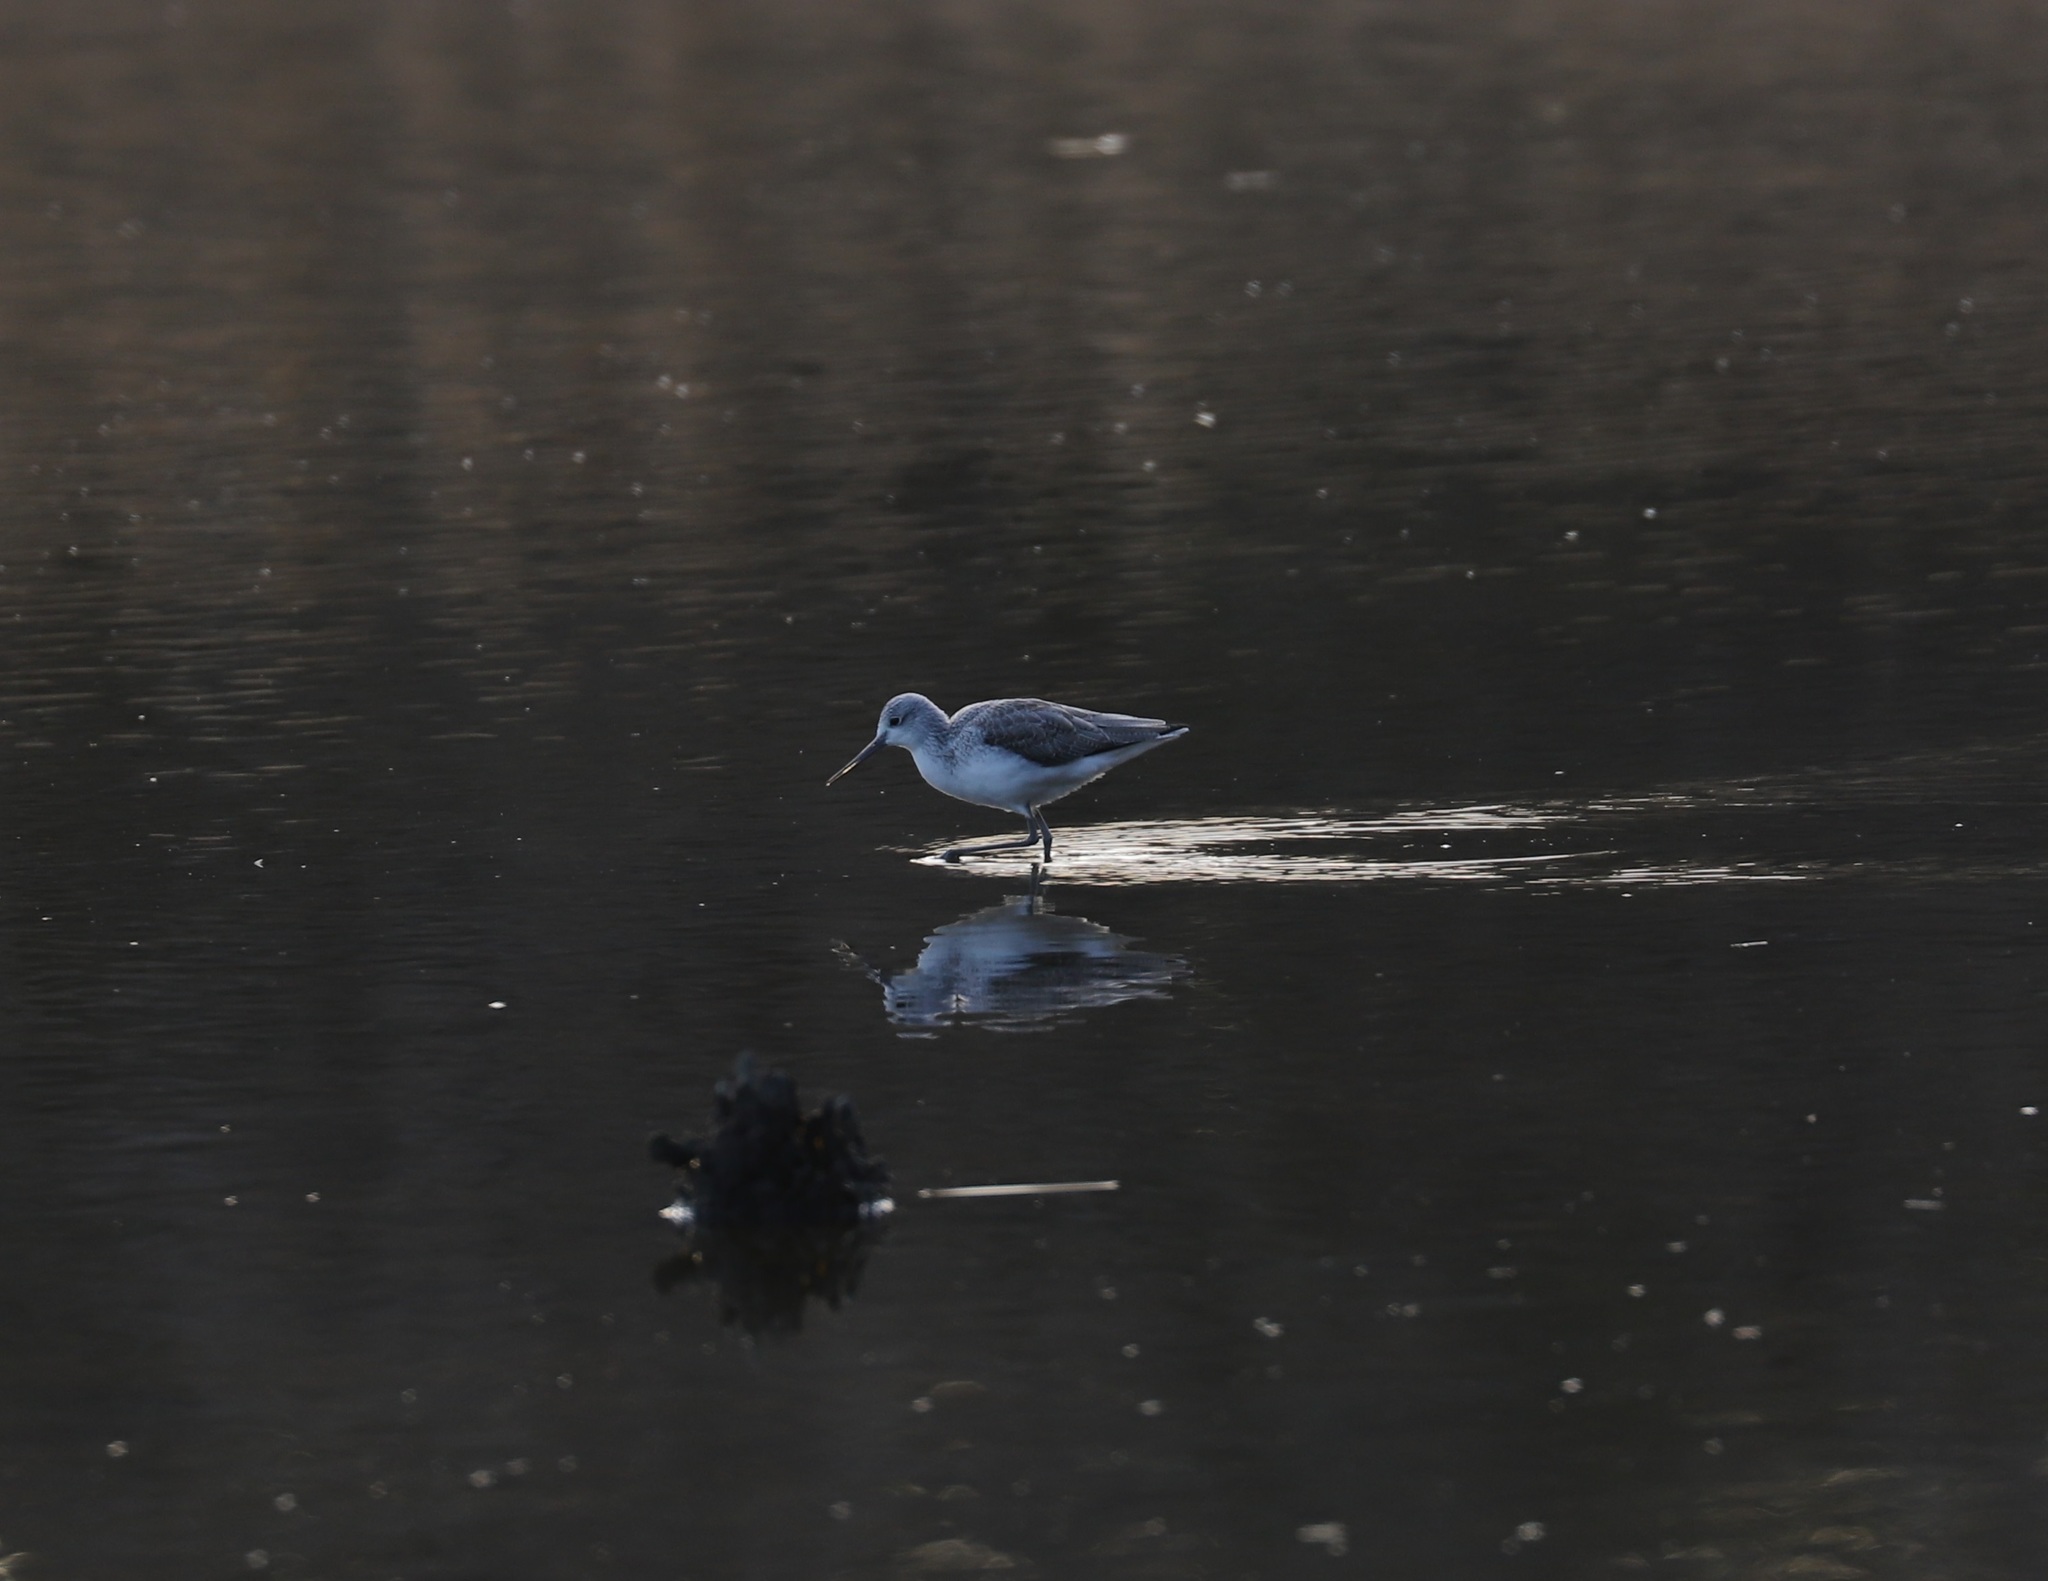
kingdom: Animalia
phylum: Chordata
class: Aves
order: Charadriiformes
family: Scolopacidae
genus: Tringa
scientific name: Tringa nebularia
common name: Common greenshank
